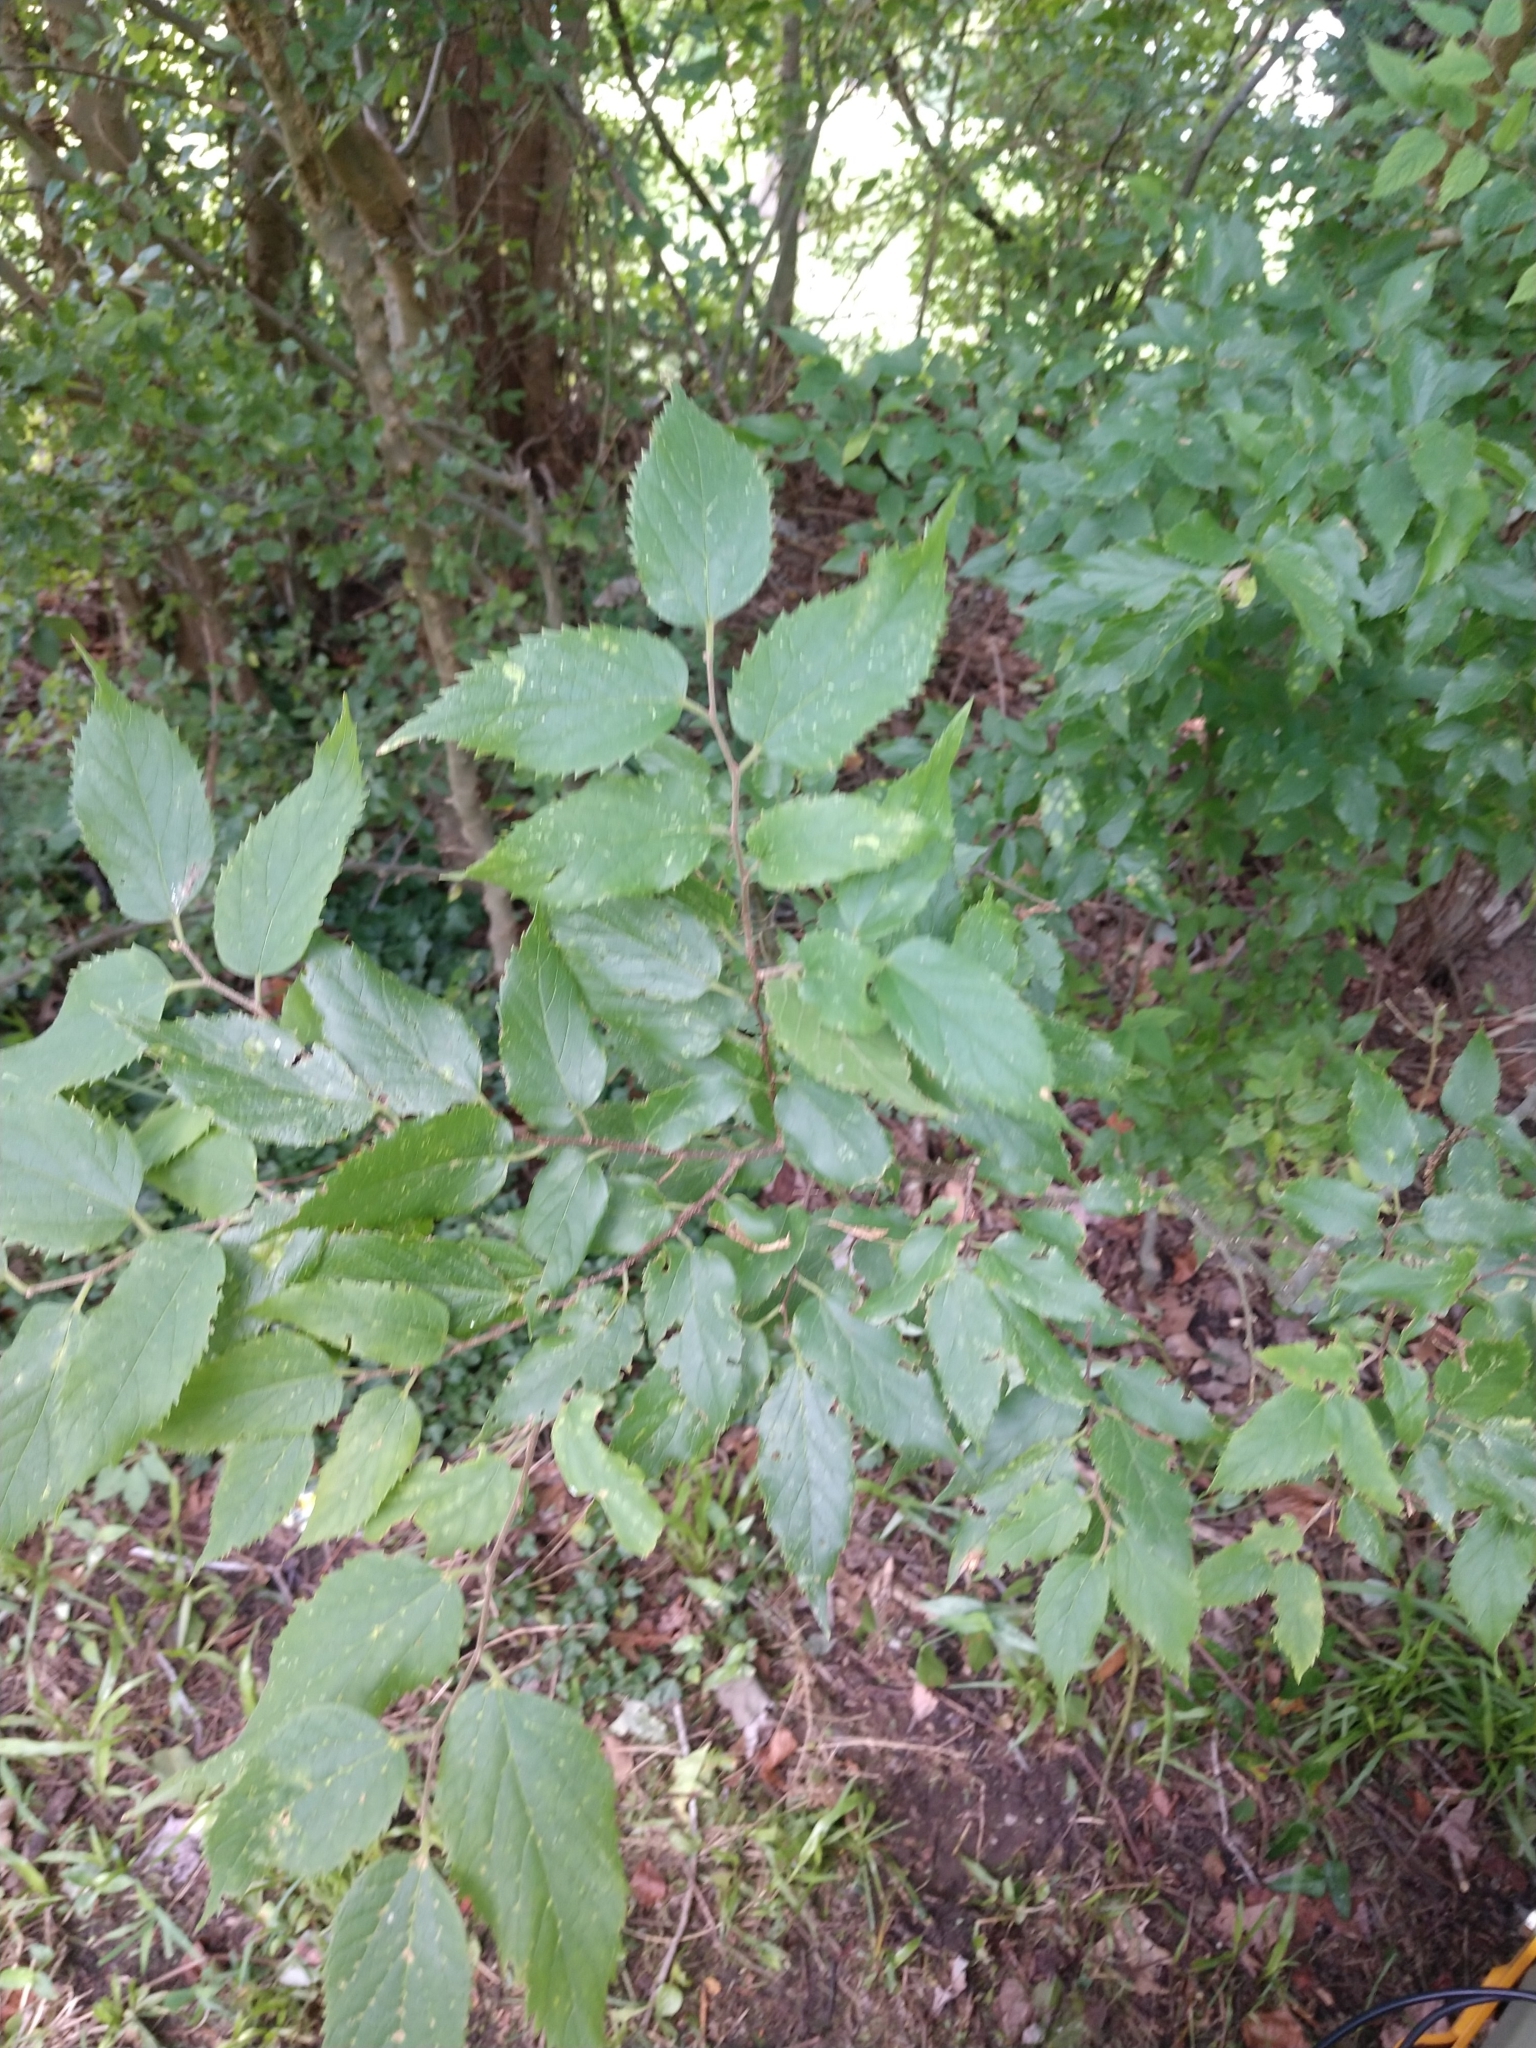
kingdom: Plantae
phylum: Tracheophyta
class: Magnoliopsida
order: Rosales
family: Cannabaceae
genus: Celtis
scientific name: Celtis occidentalis
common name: Common hackberry
